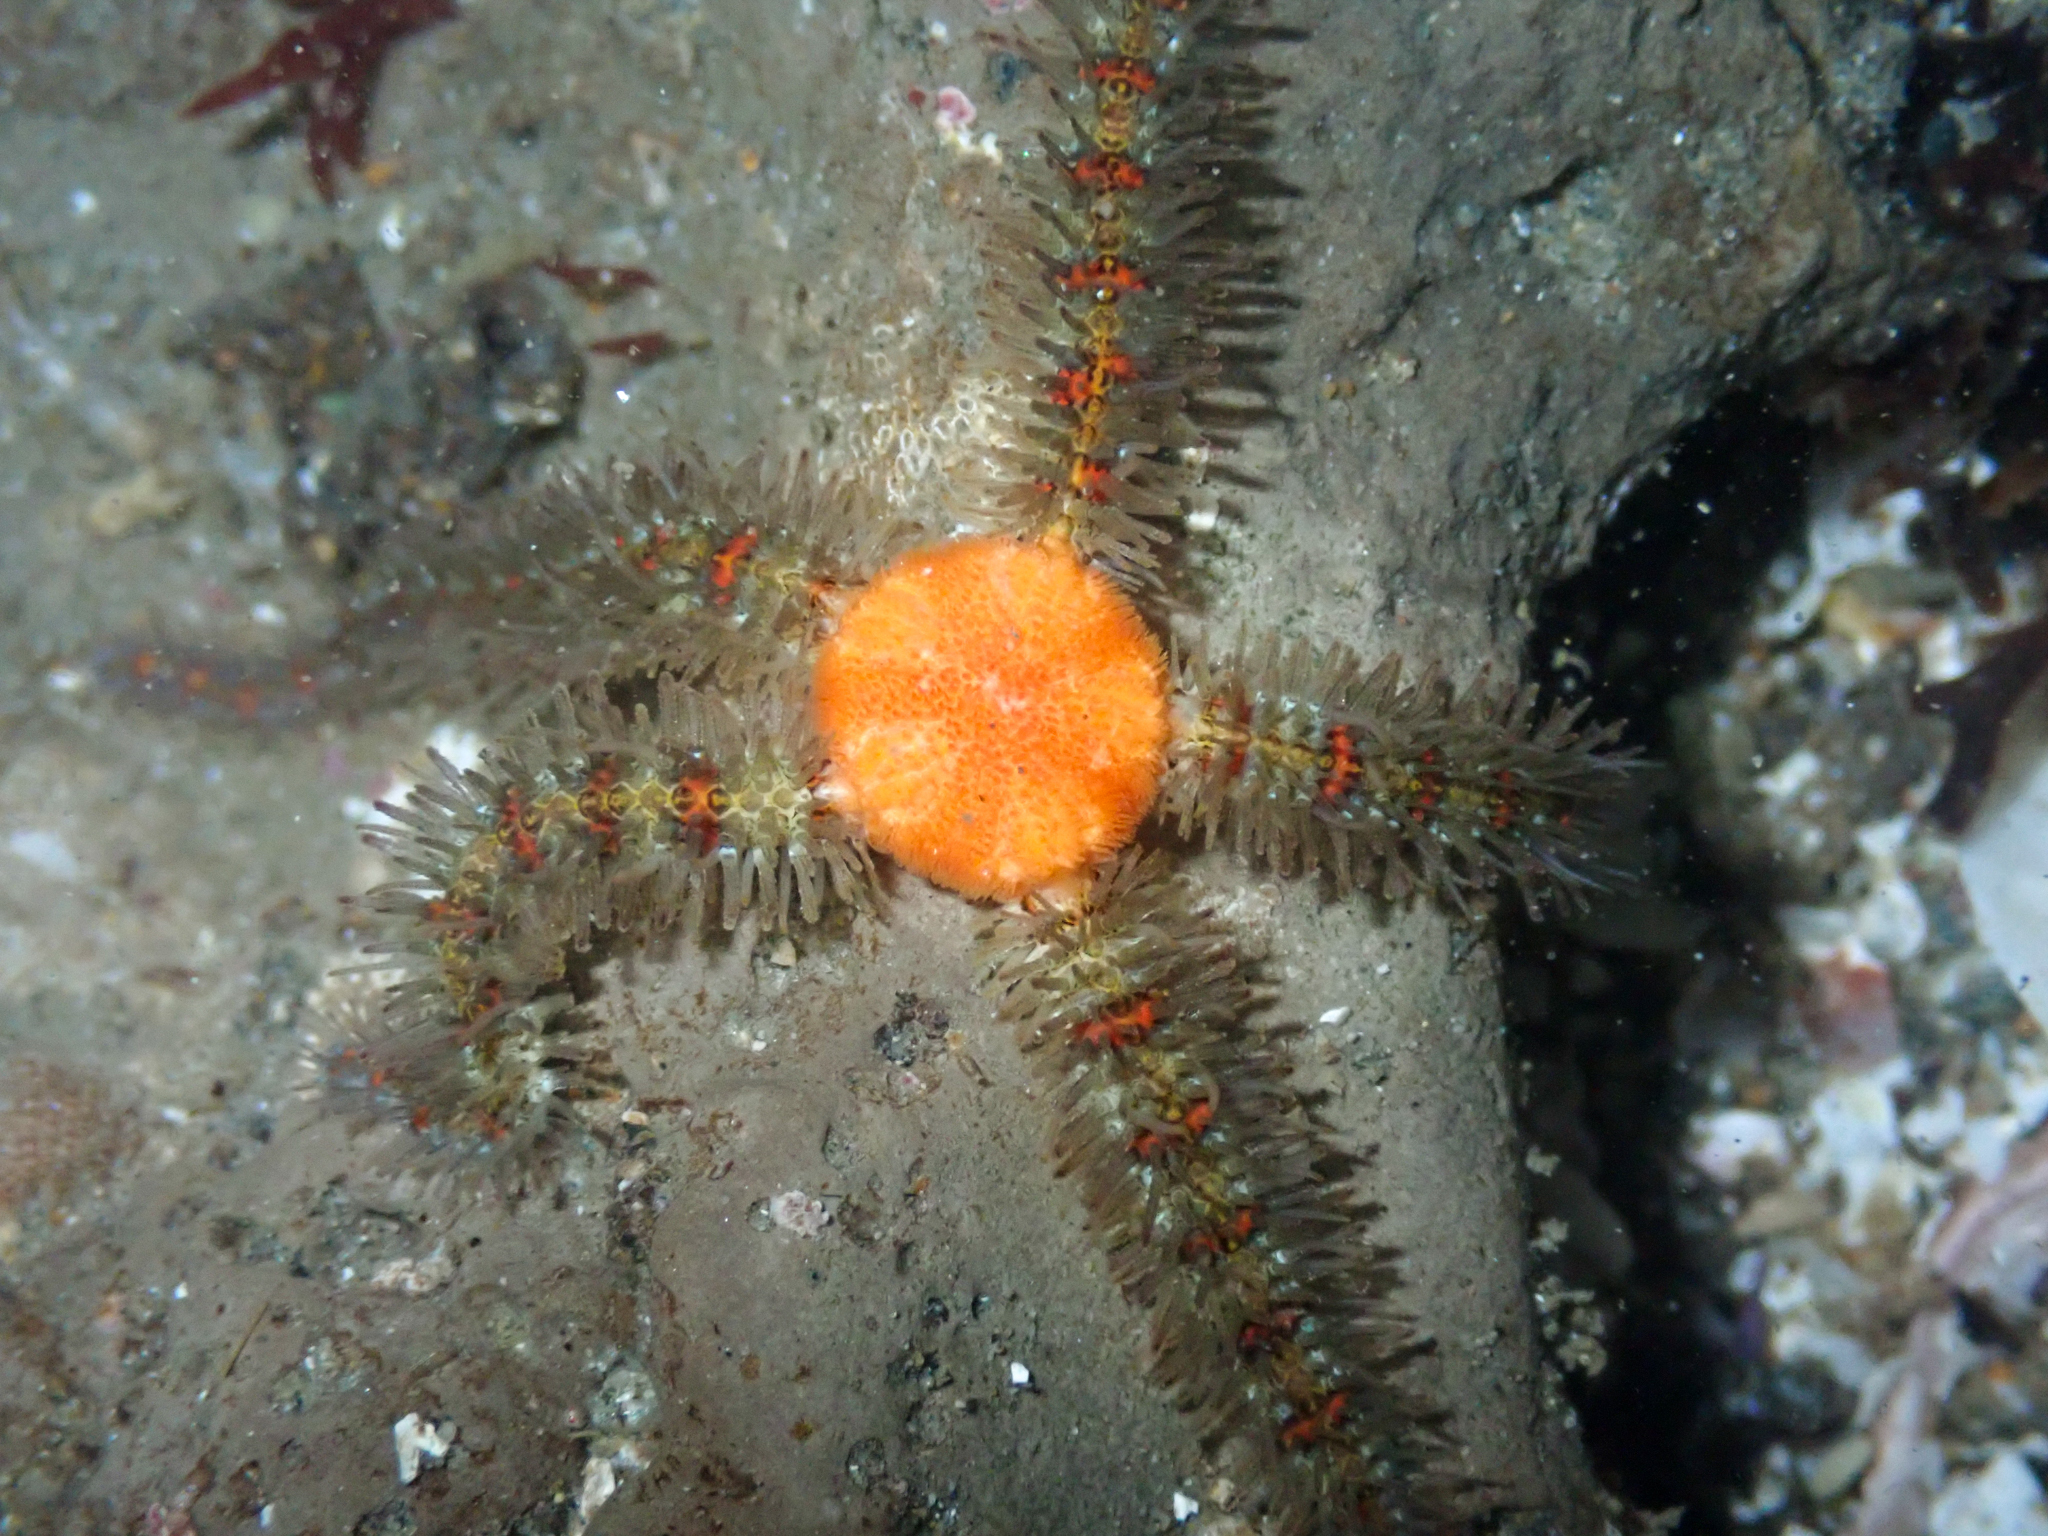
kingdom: Animalia
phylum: Echinodermata
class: Ophiuroidea
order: Amphilepidida
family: Ophiotrichidae
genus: Ophiothrix
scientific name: Ophiothrix spiculata
